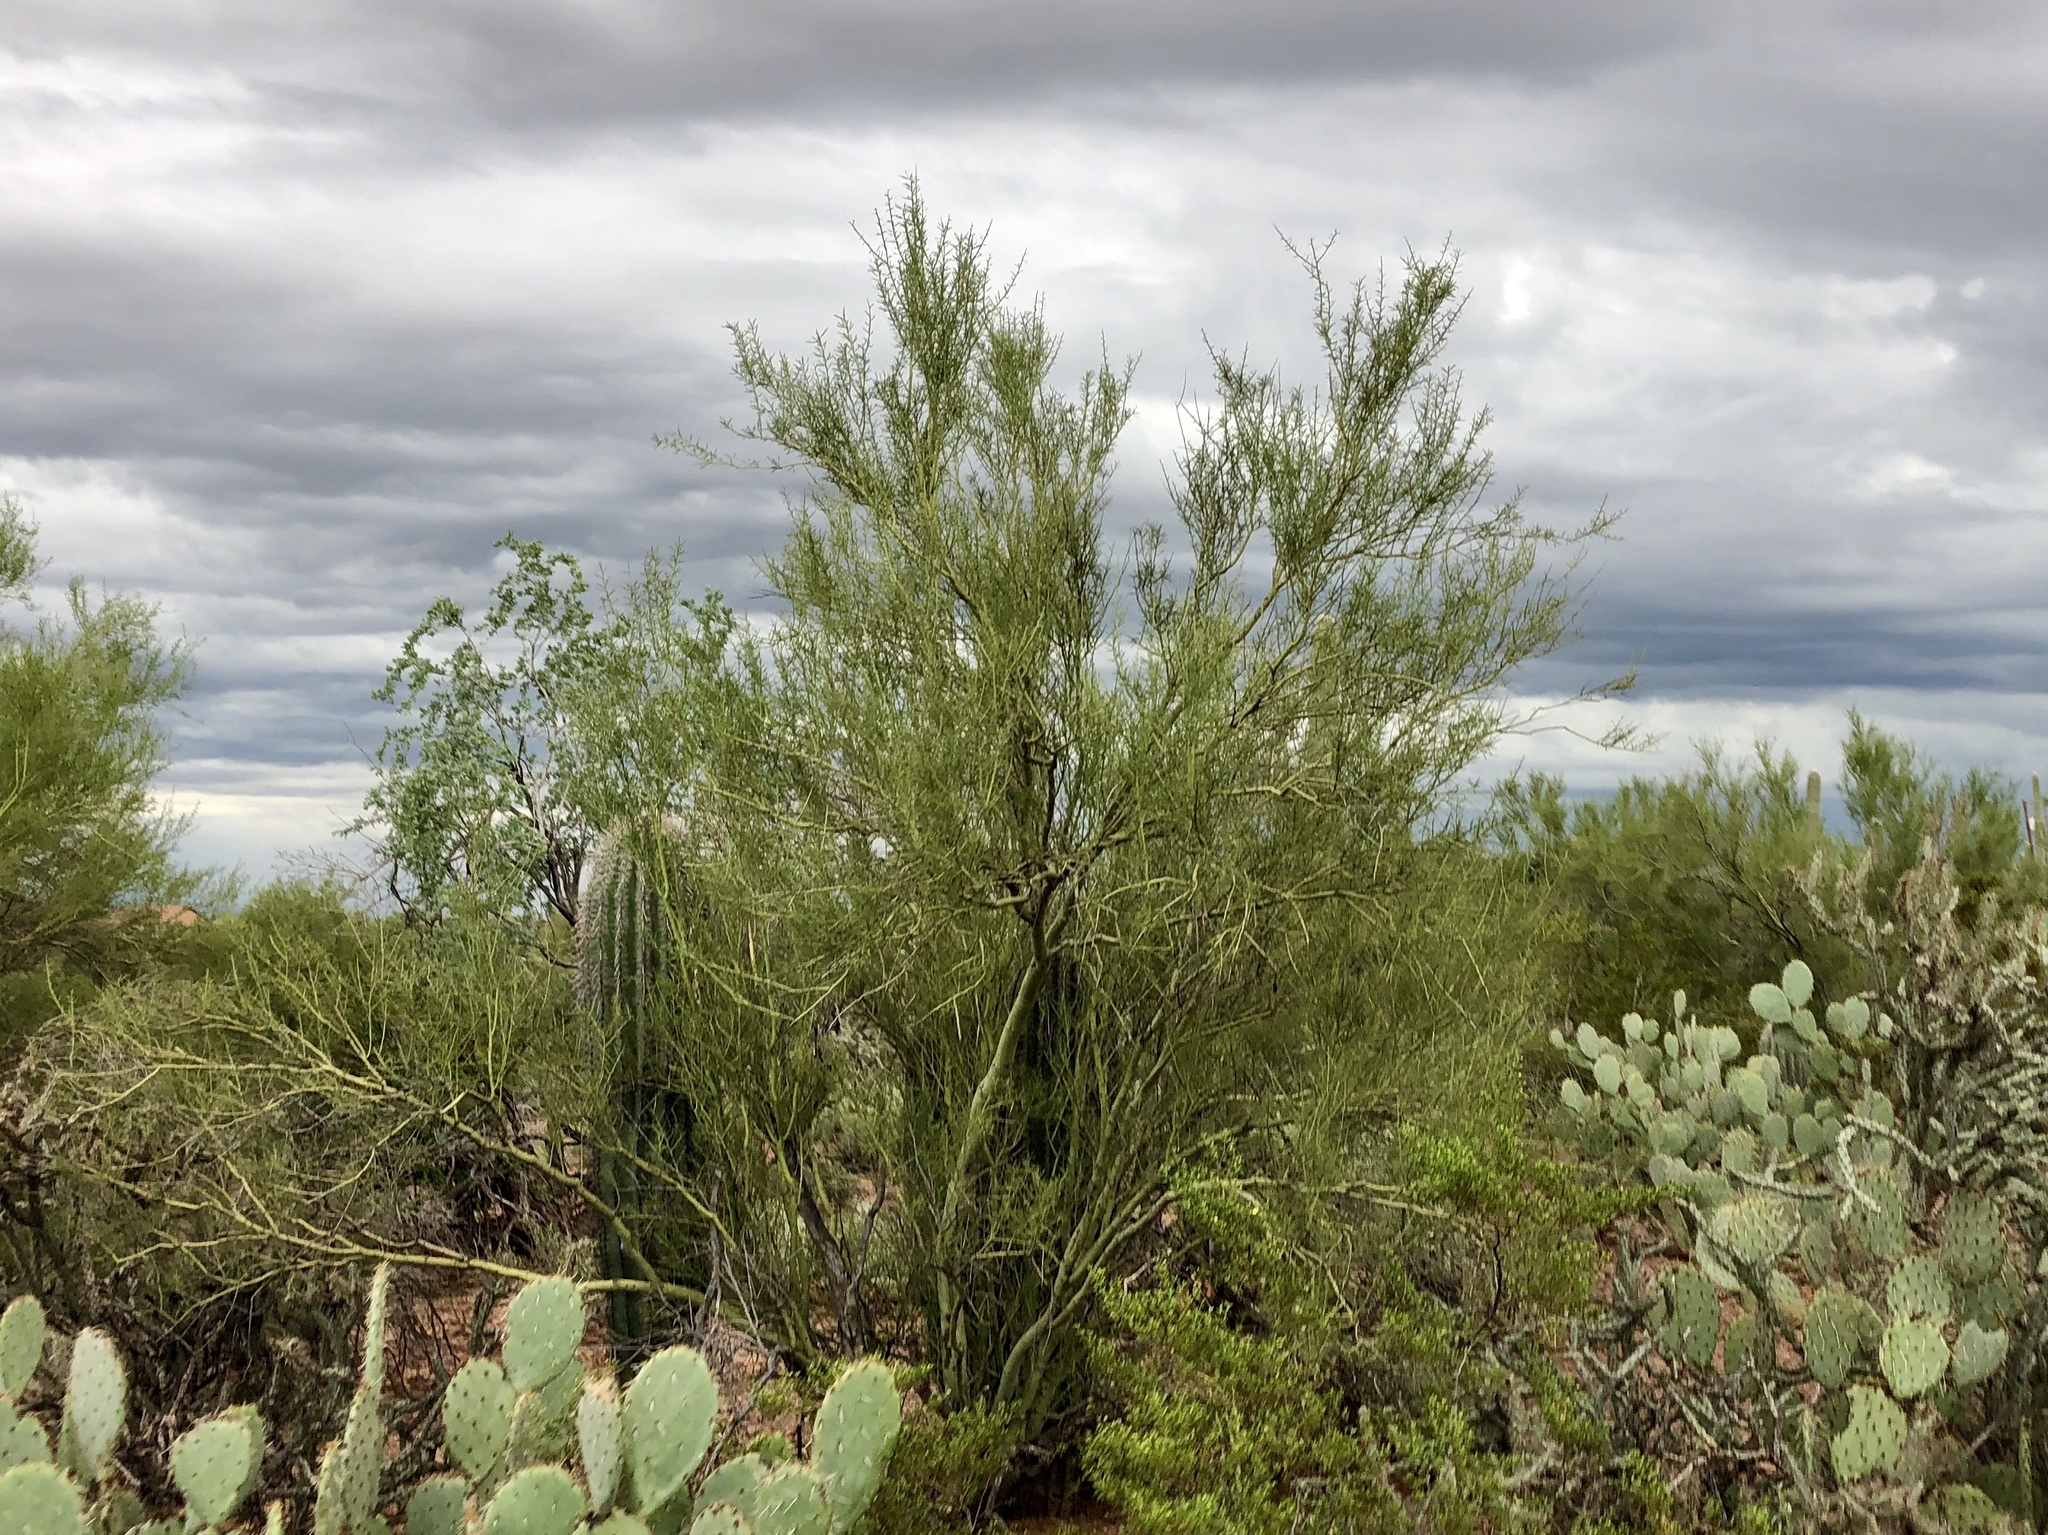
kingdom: Plantae
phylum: Tracheophyta
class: Magnoliopsida
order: Fabales
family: Fabaceae
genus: Parkinsonia
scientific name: Parkinsonia microphylla
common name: Yellow paloverde
